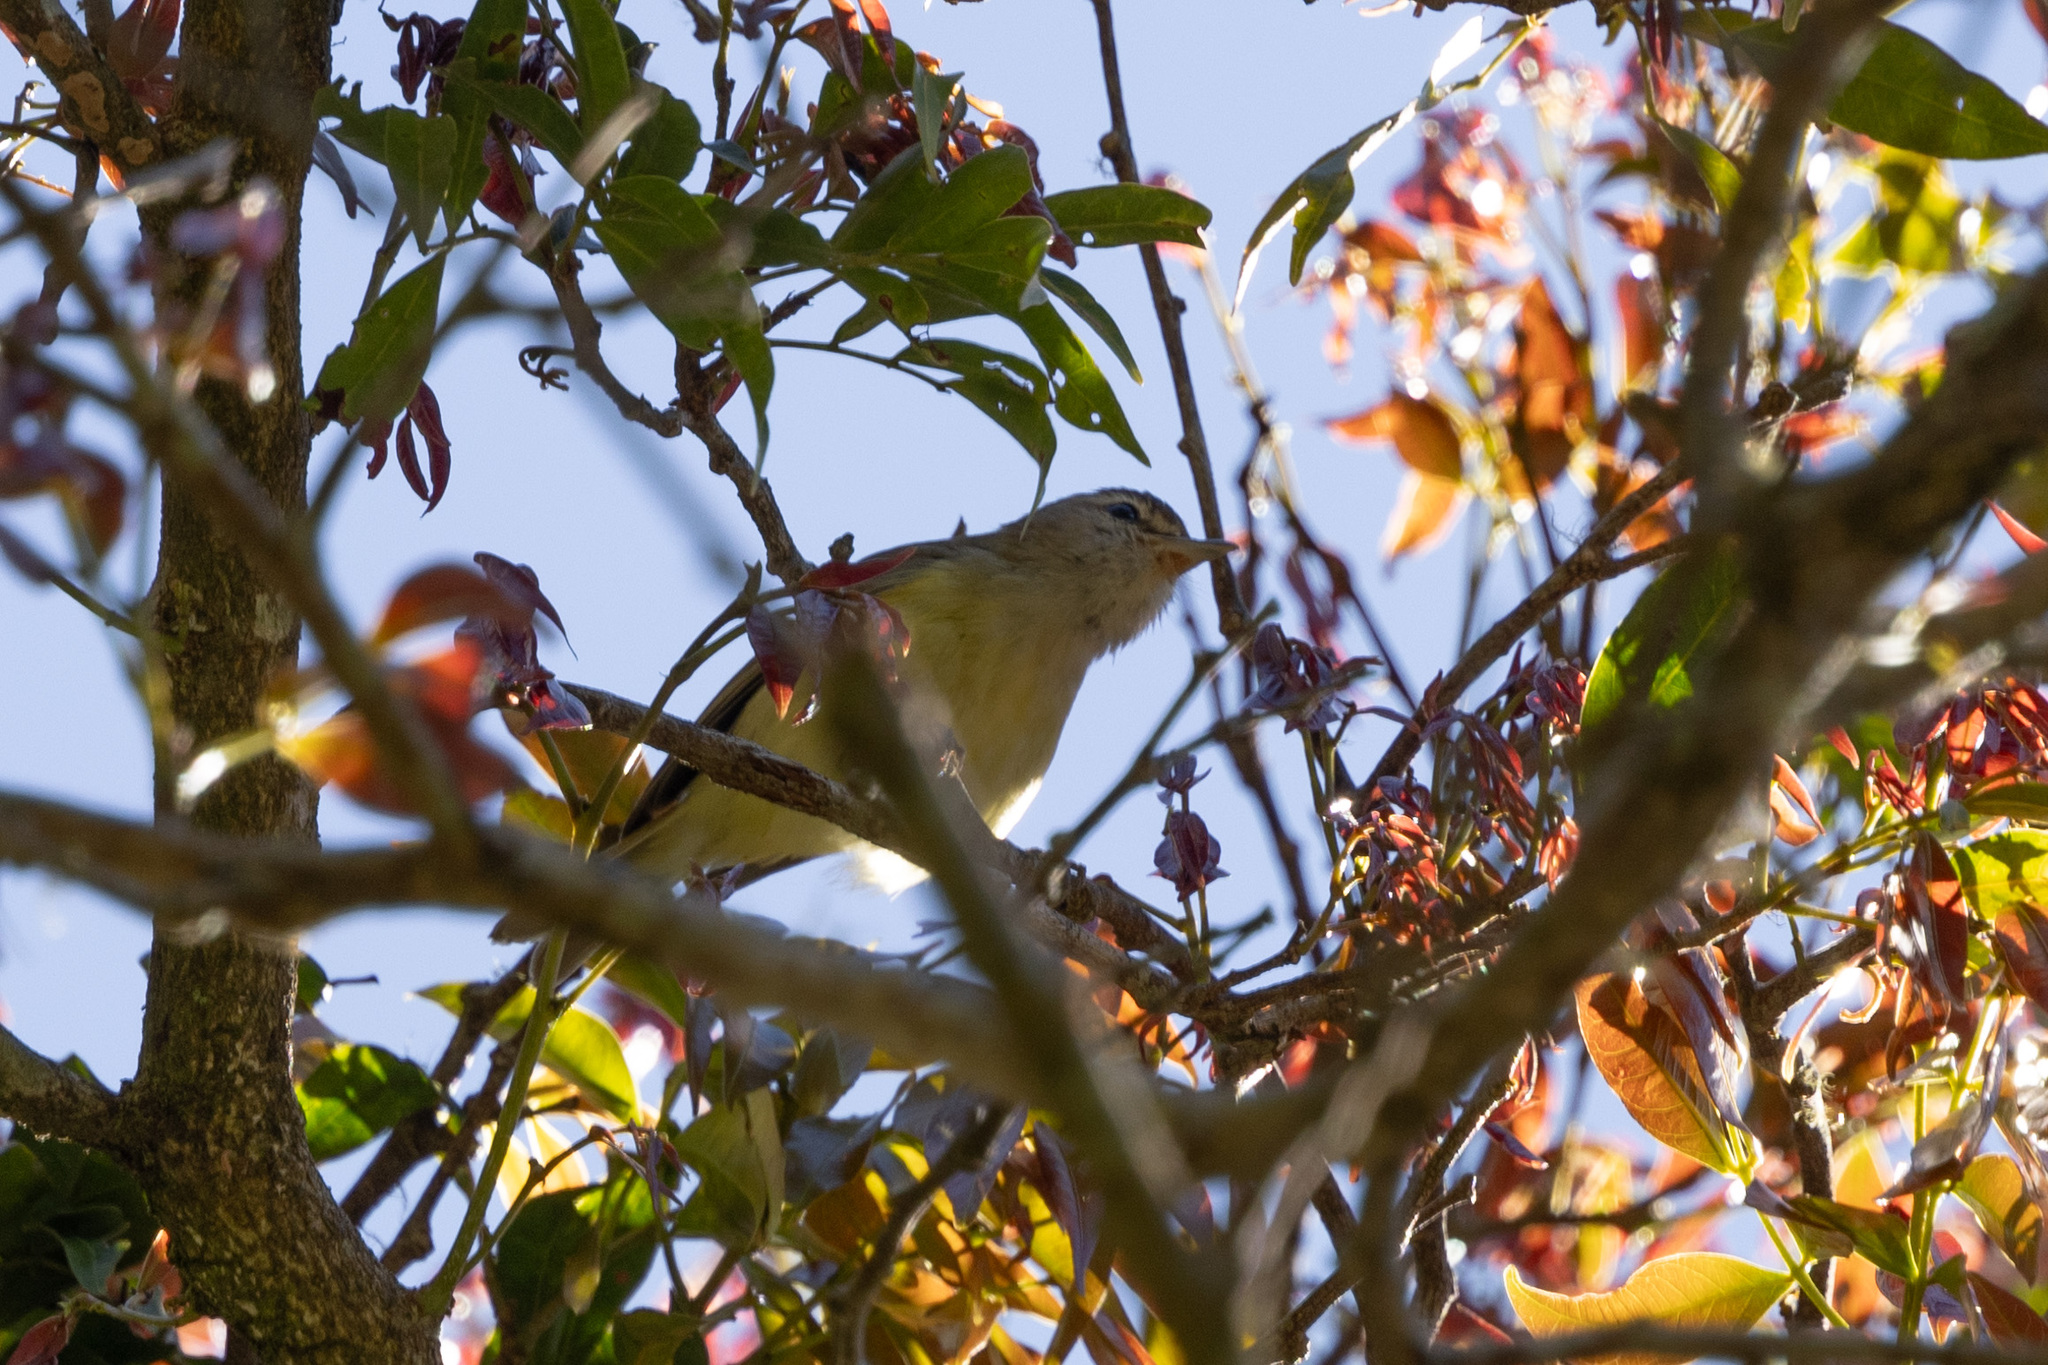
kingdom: Animalia
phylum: Chordata
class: Aves
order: Passeriformes
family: Vireonidae
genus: Vireo
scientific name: Vireo leucophrys
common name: Brown-capped vireo
